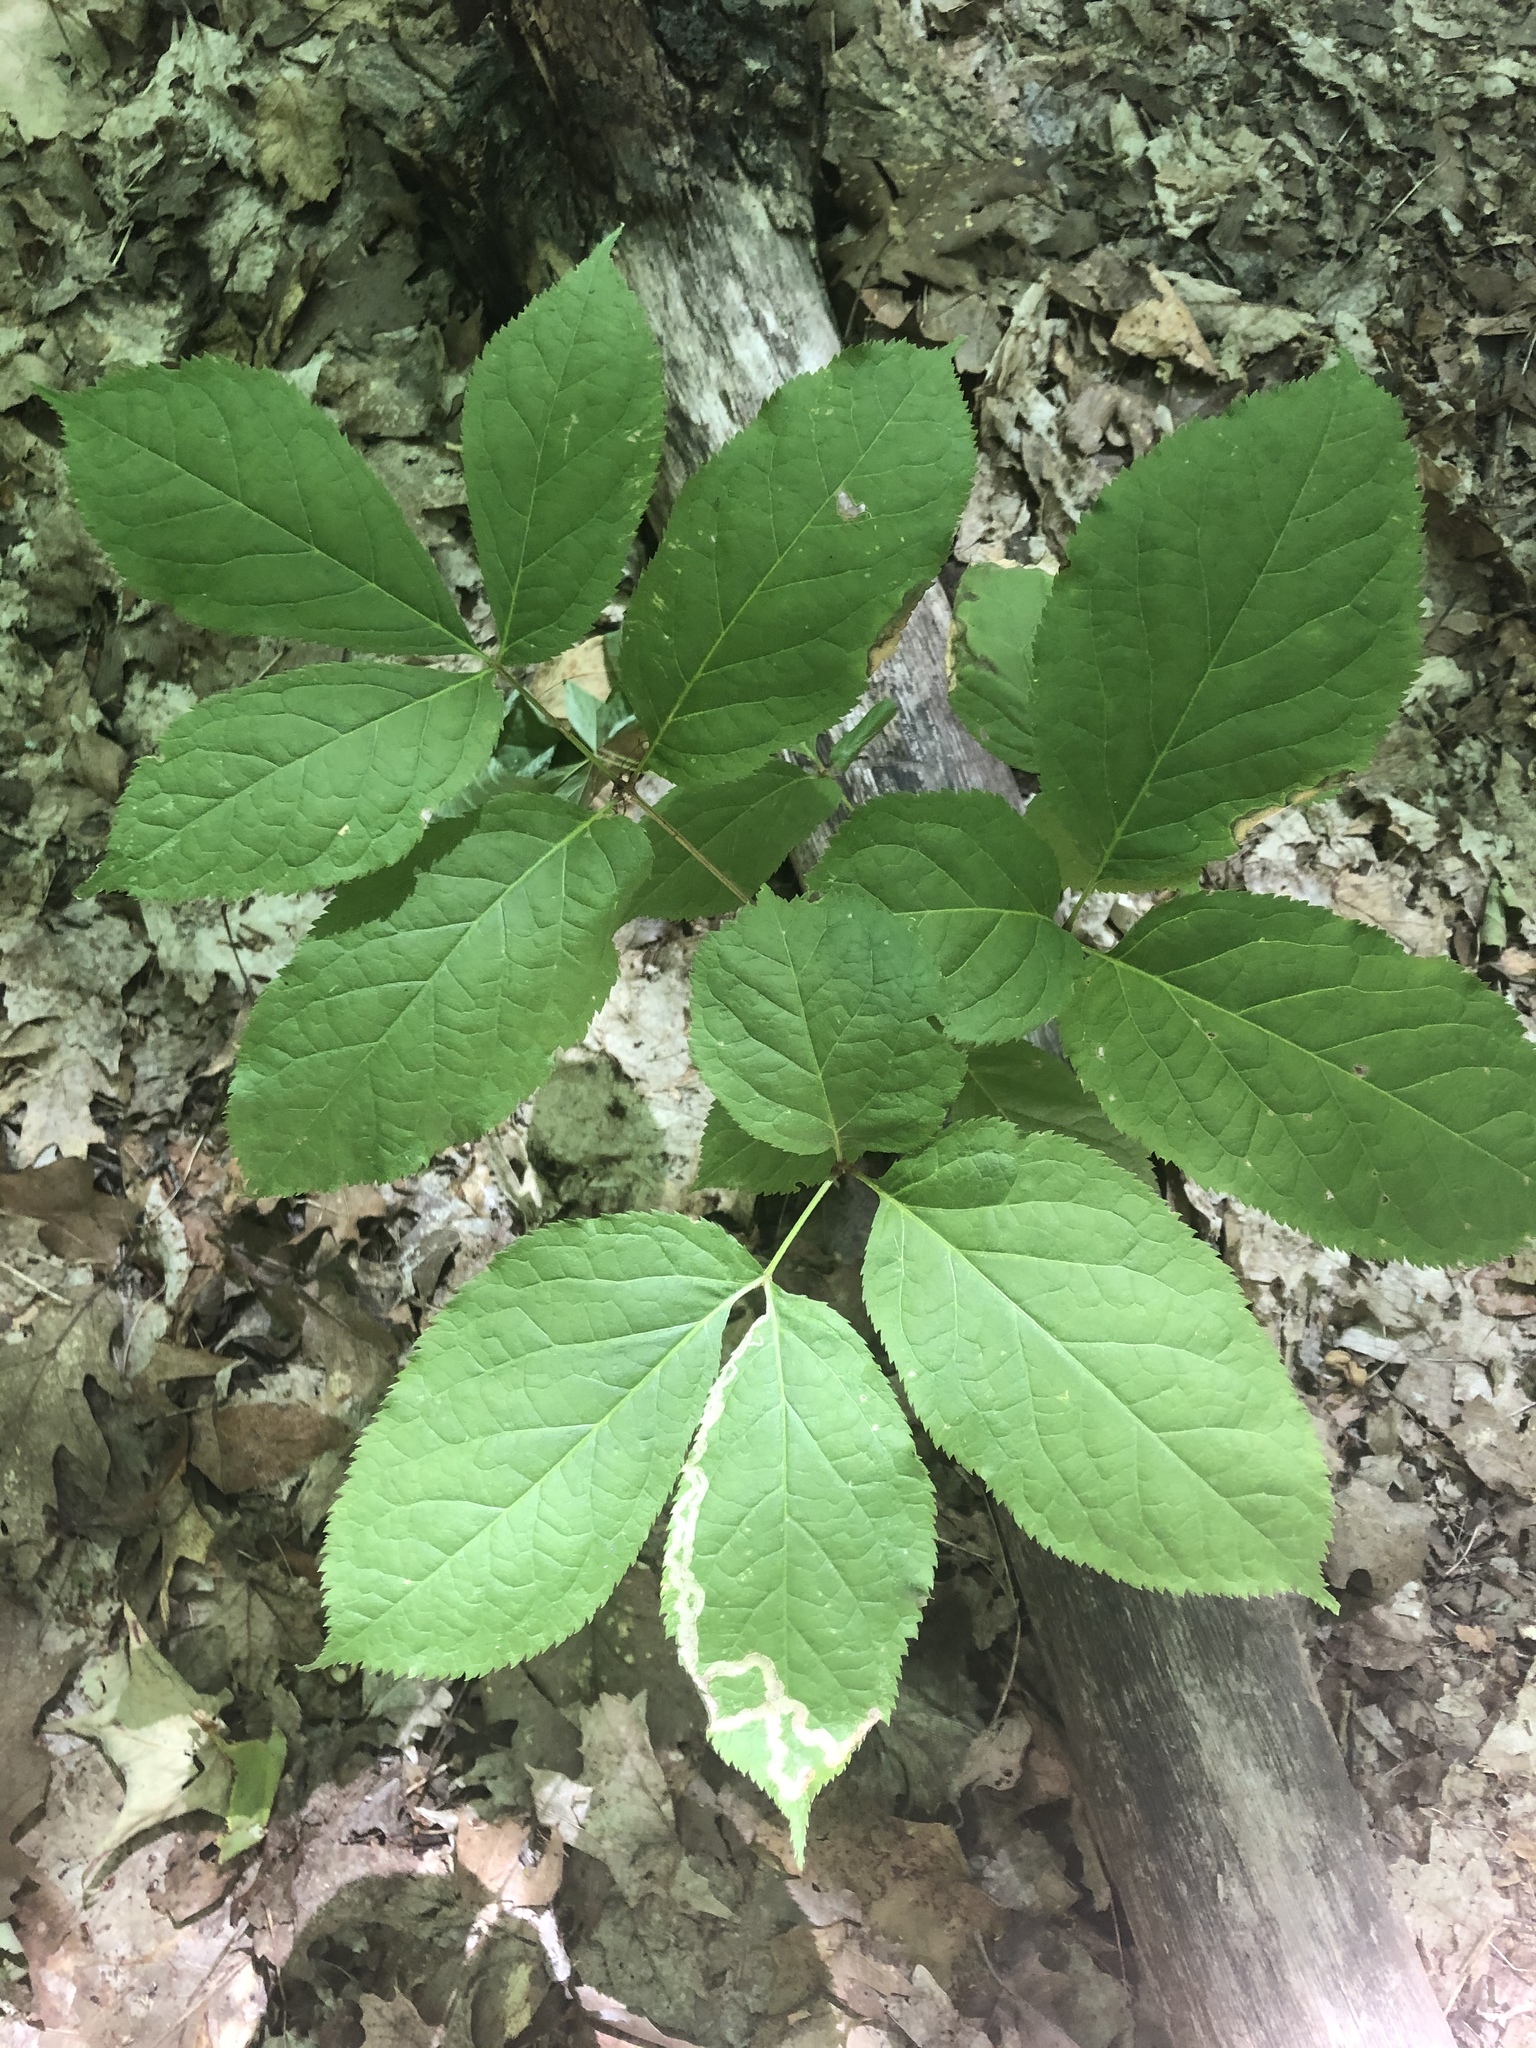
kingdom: Plantae
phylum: Tracheophyta
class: Magnoliopsida
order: Apiales
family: Araliaceae
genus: Aralia
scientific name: Aralia nudicaulis
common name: Wild sarsaparilla
